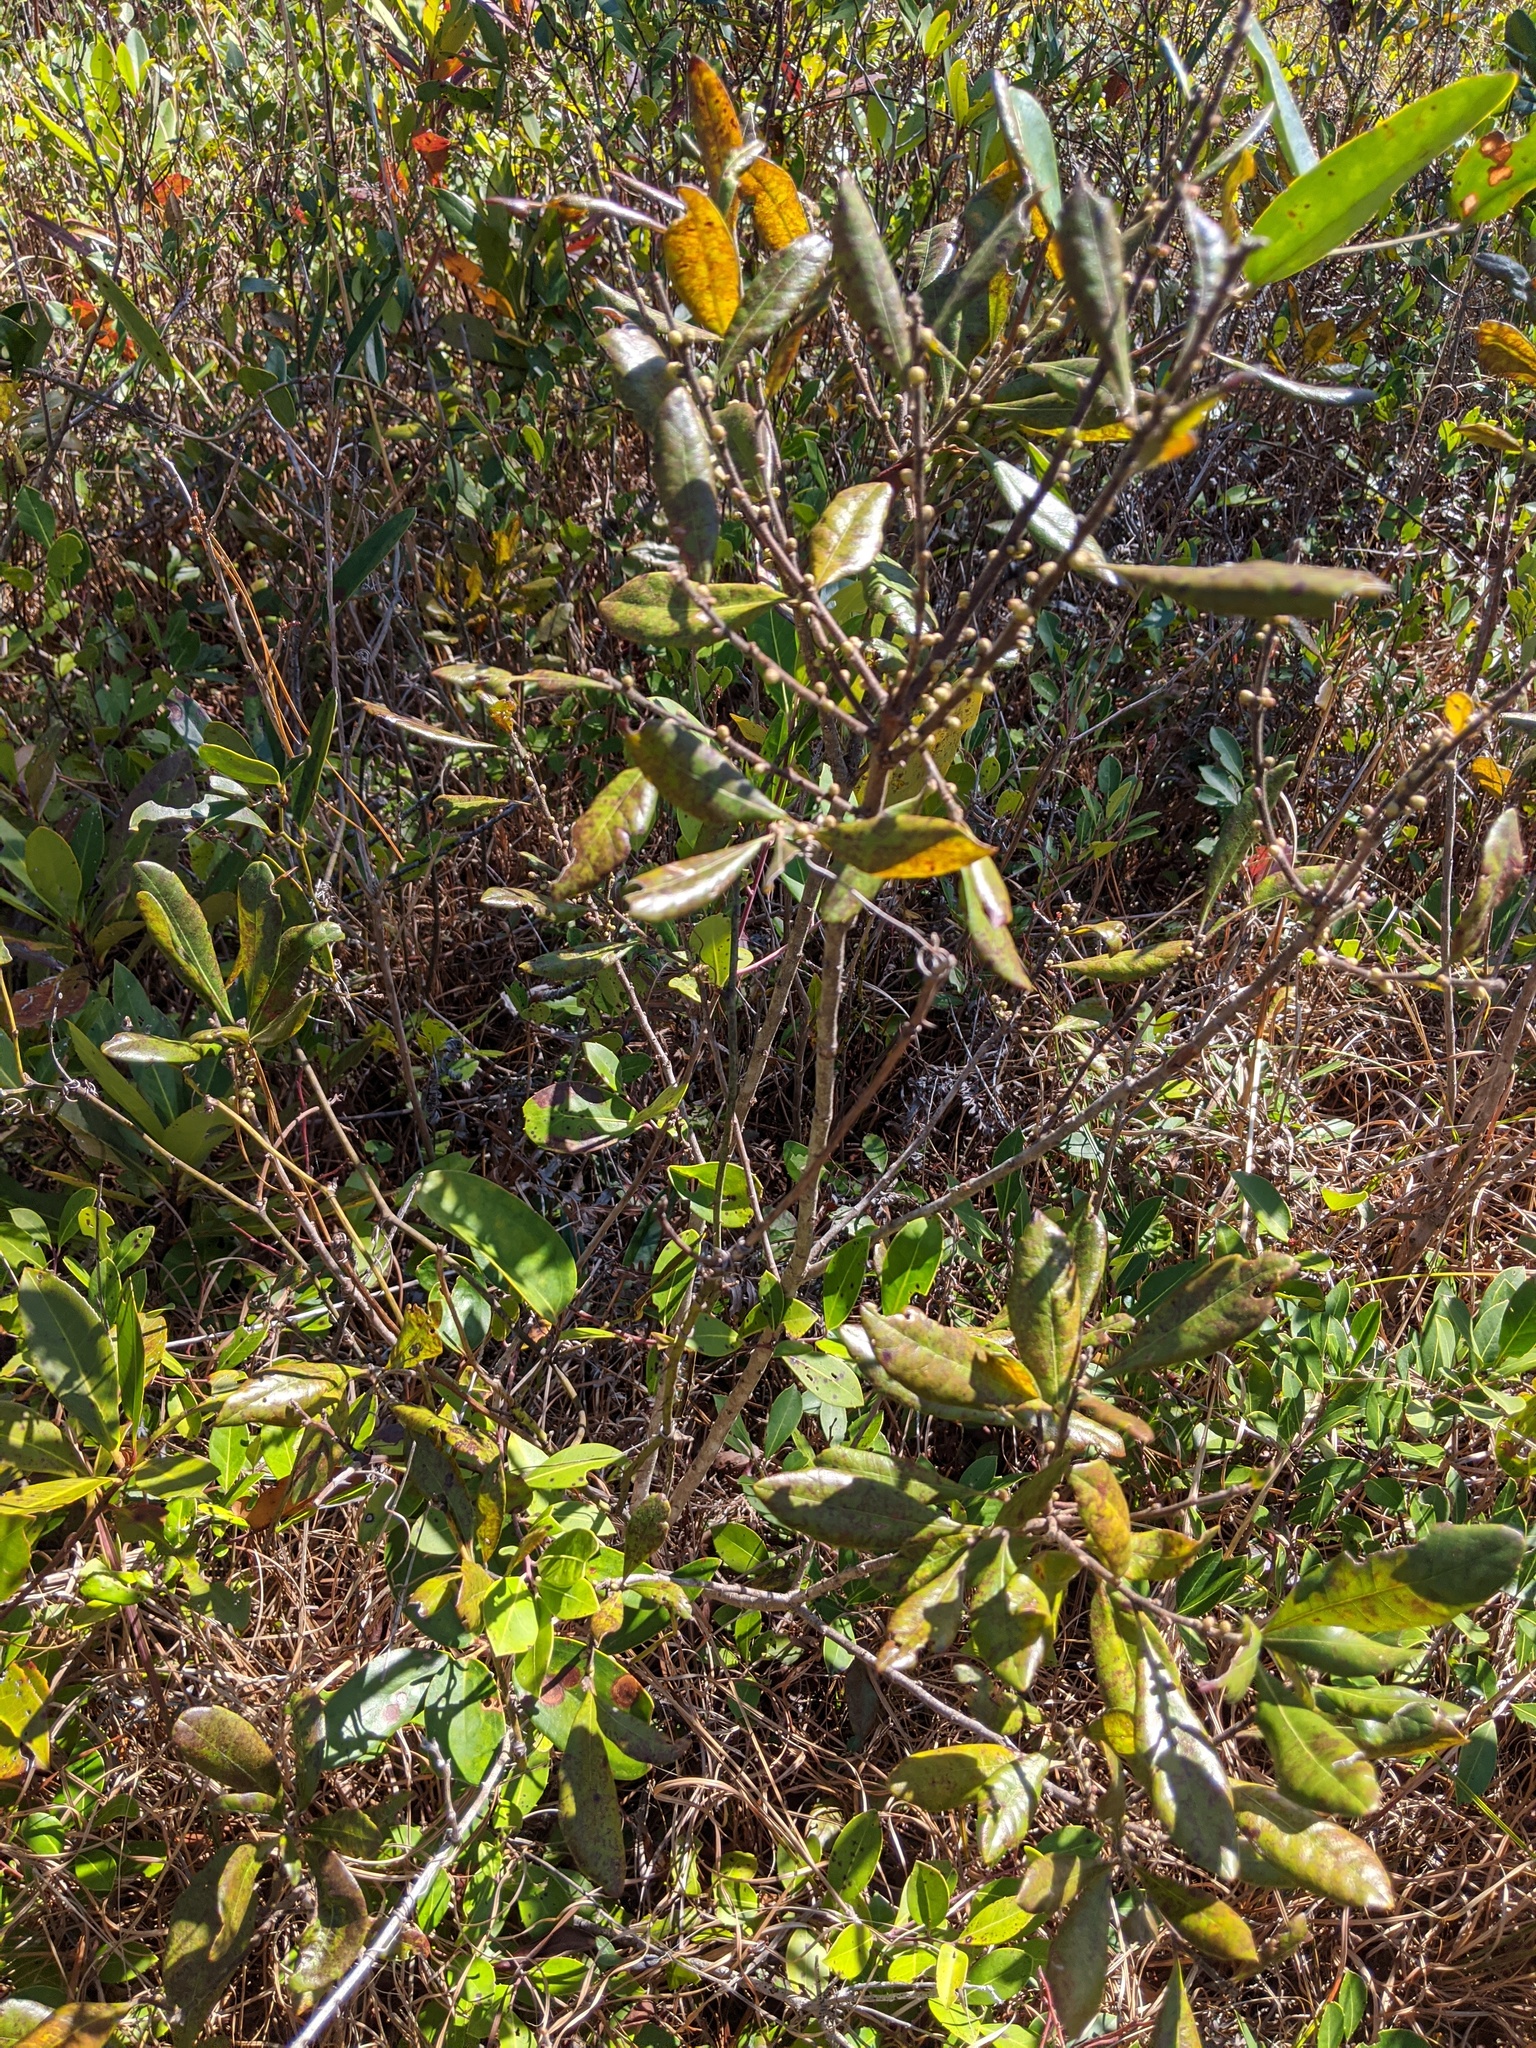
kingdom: Plantae
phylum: Tracheophyta
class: Magnoliopsida
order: Fagales
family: Myricaceae
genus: Morella
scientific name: Morella caroliniensis
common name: Evergreen bayberry
